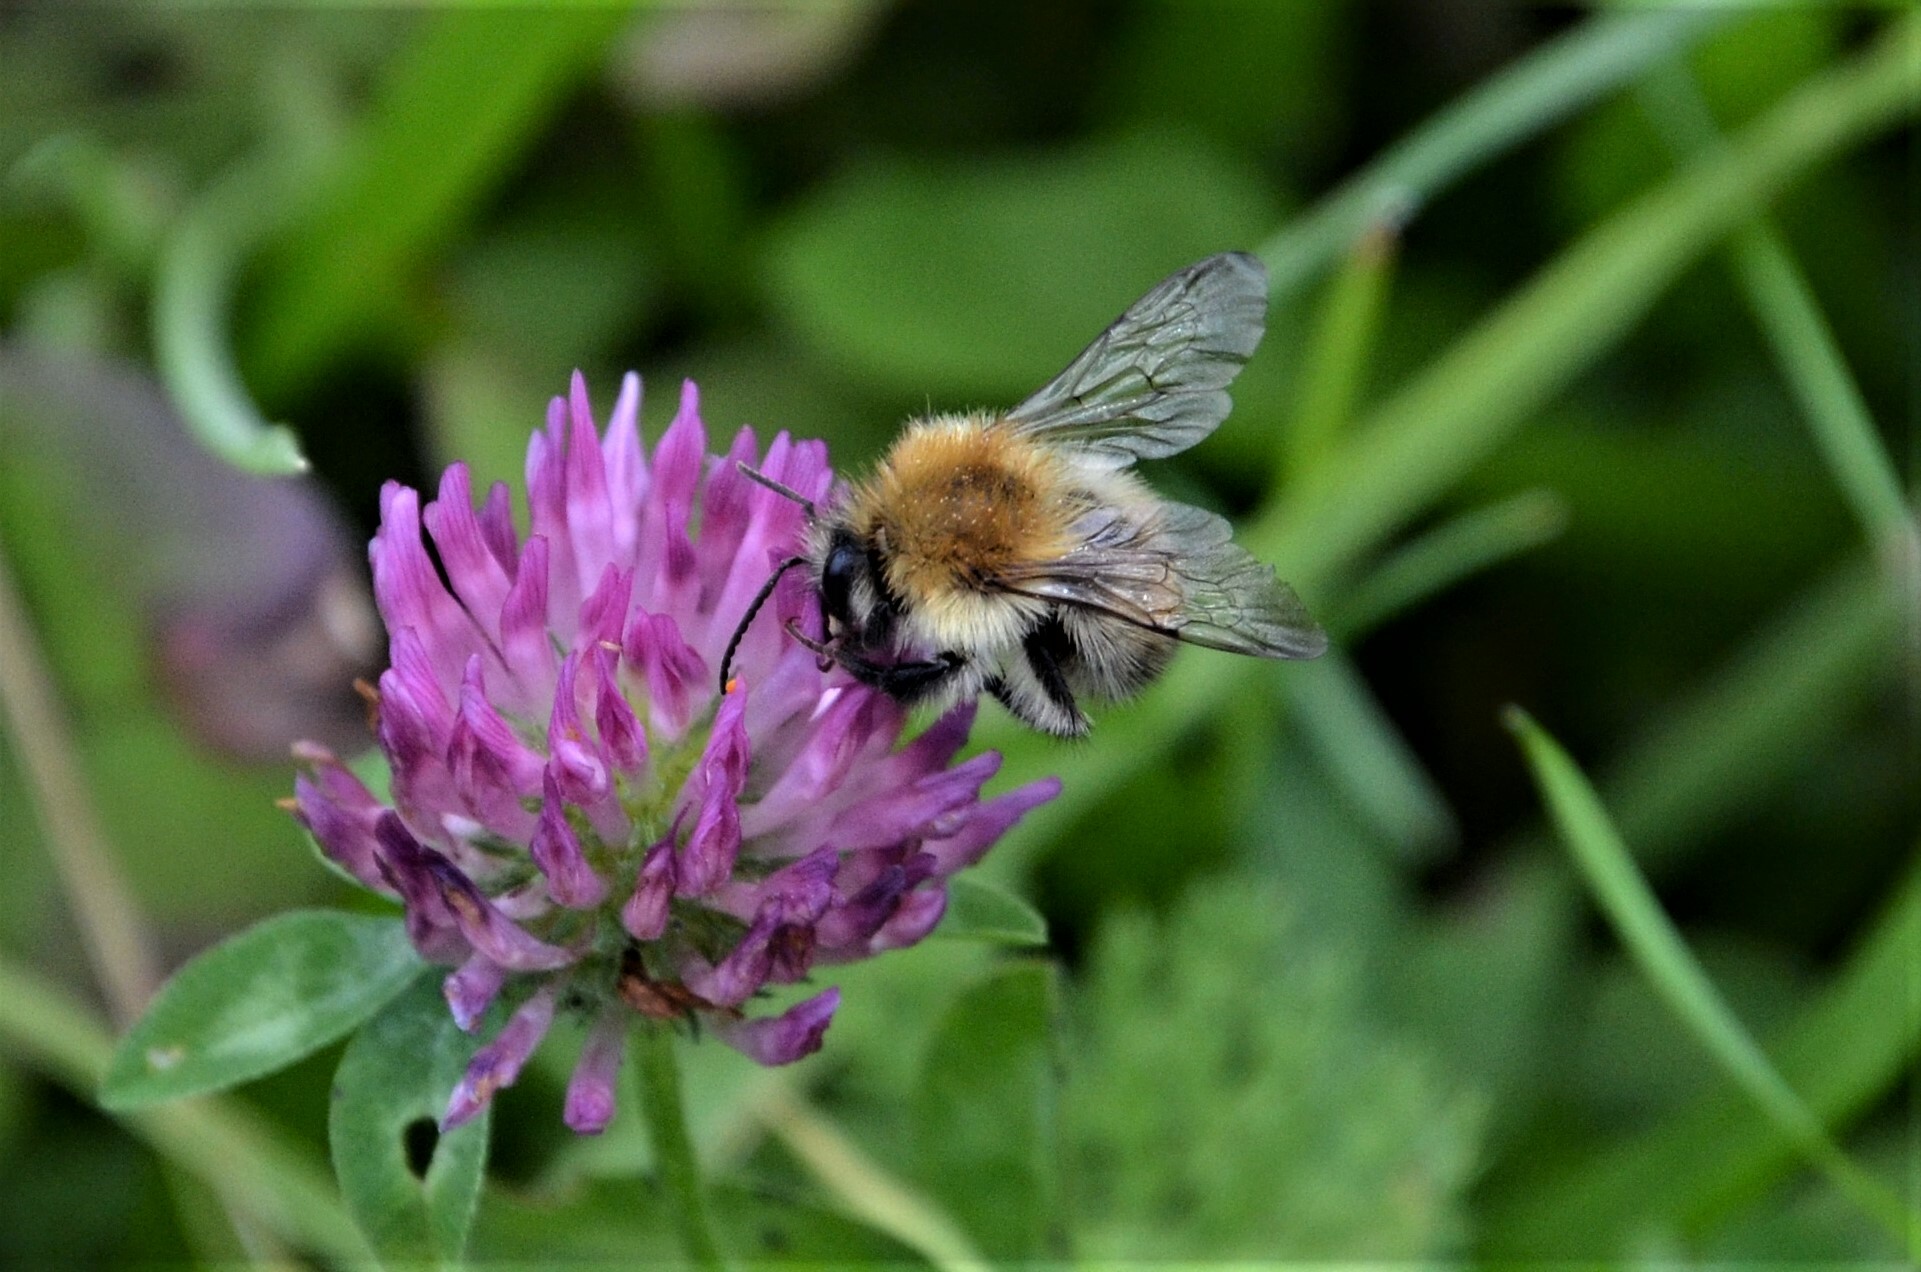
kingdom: Animalia
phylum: Arthropoda
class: Insecta
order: Hymenoptera
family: Apidae
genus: Bombus
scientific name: Bombus pascuorum
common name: Common carder bee
